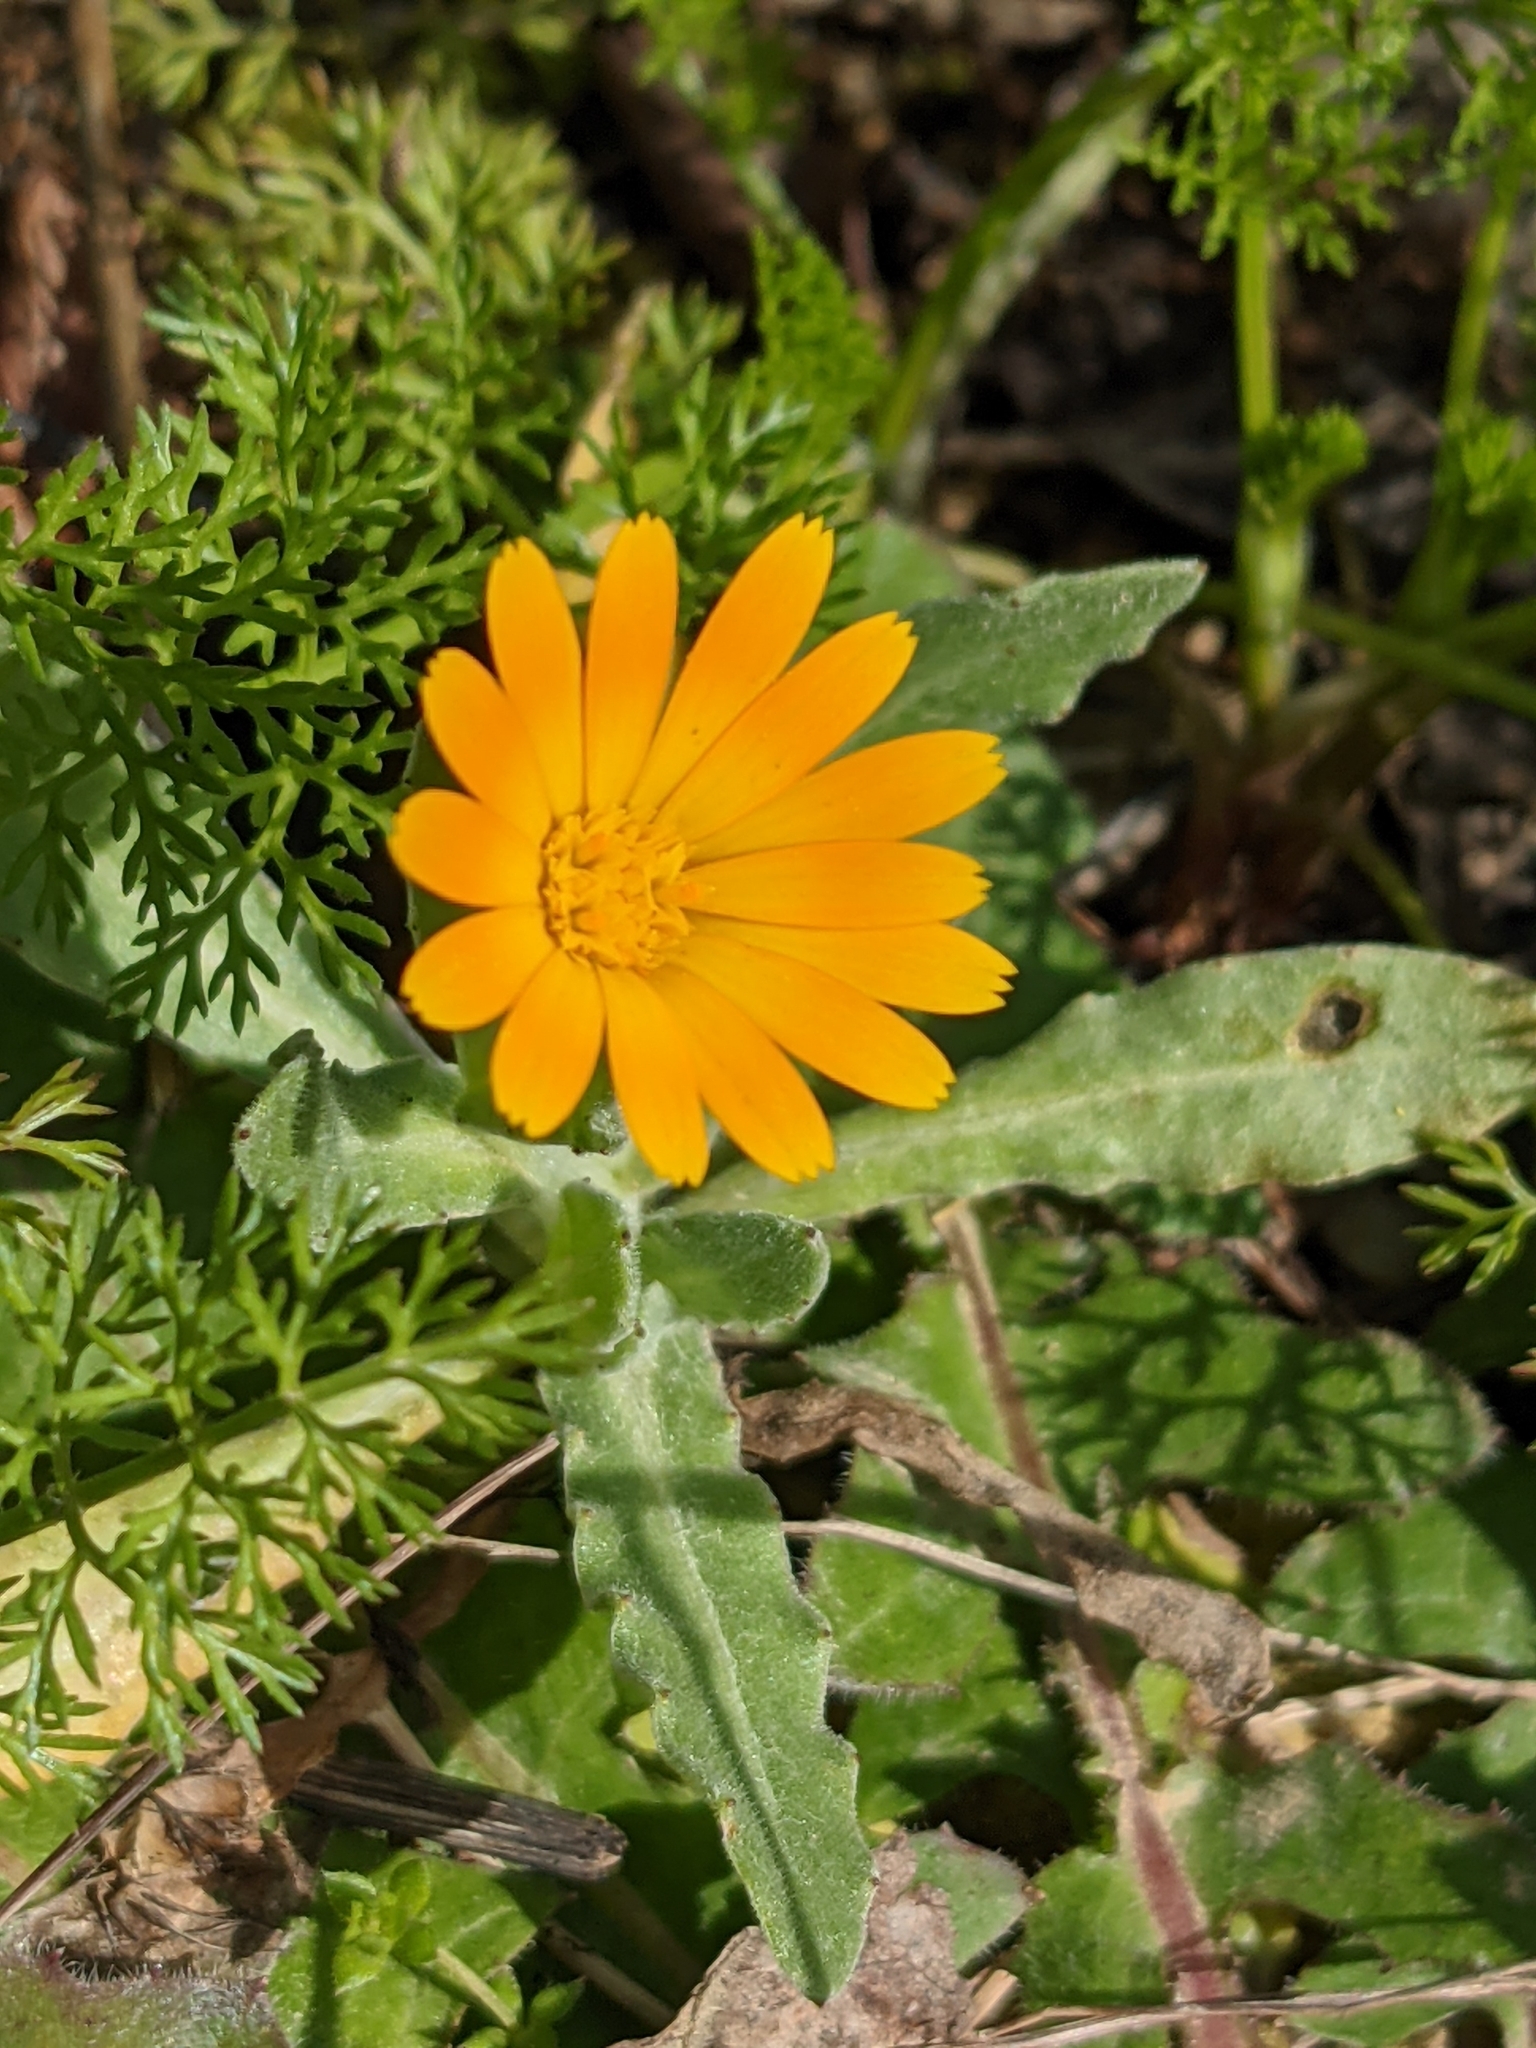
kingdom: Plantae
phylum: Tracheophyta
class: Magnoliopsida
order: Asterales
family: Asteraceae
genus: Calendula
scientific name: Calendula arvensis
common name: Field marigold
